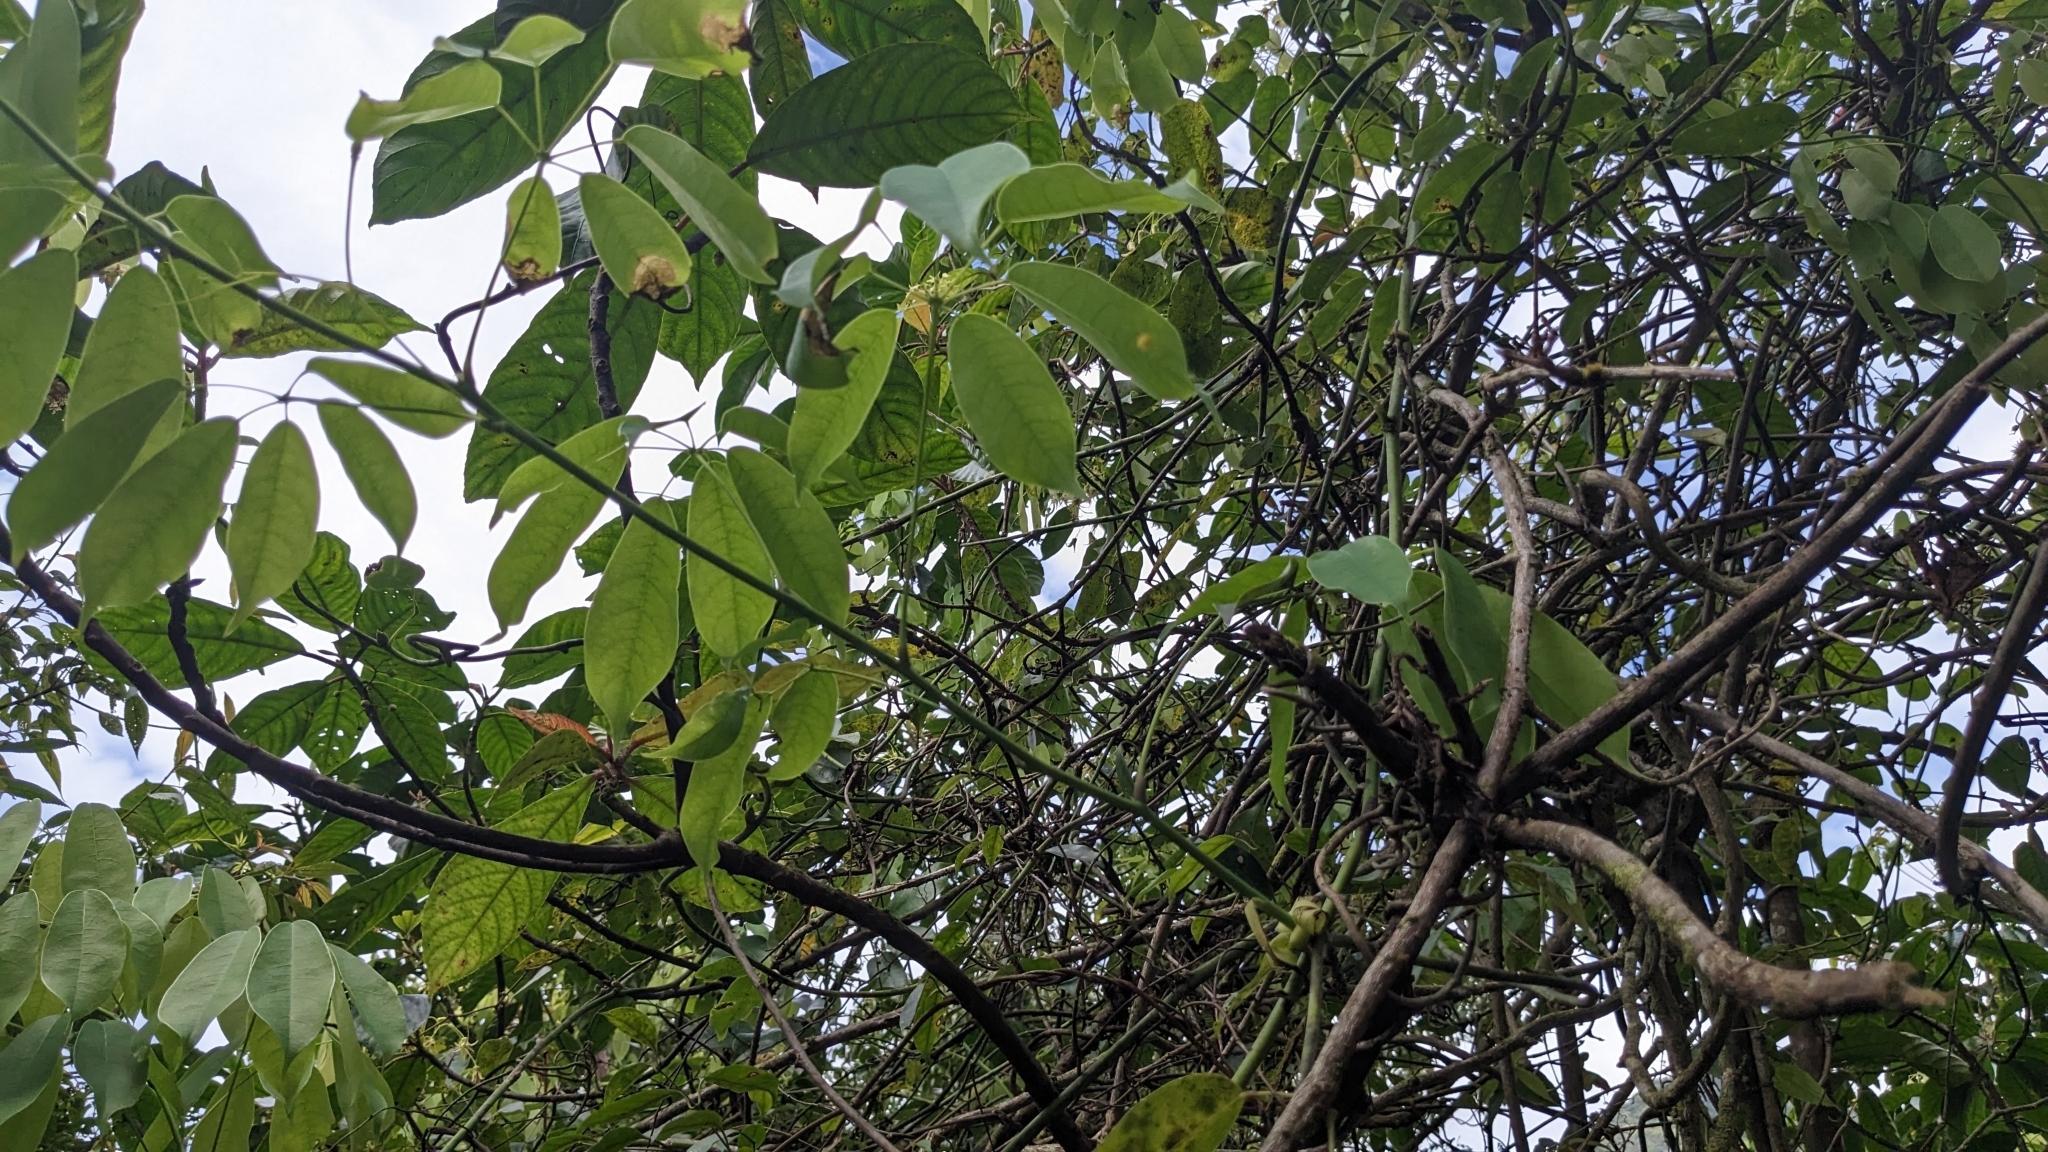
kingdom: Plantae
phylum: Tracheophyta
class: Magnoliopsida
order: Ranunculales
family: Lardizabalaceae
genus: Stauntonia
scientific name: Stauntonia obovatifoliola
